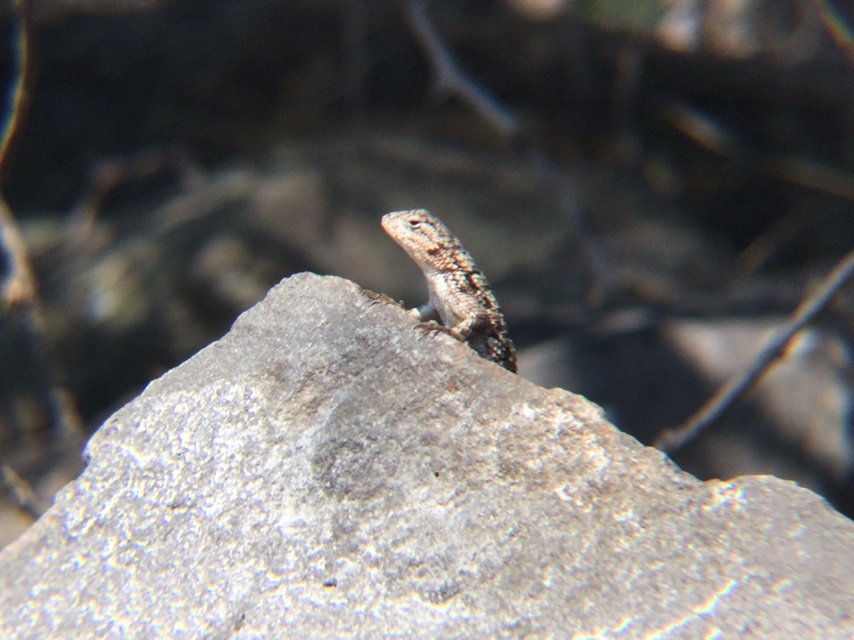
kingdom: Animalia
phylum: Chordata
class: Squamata
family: Phrynosomatidae
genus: Sceloporus
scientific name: Sceloporus spinosus
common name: Blue-spotted spiny lizard [caeruleopunctatus]
